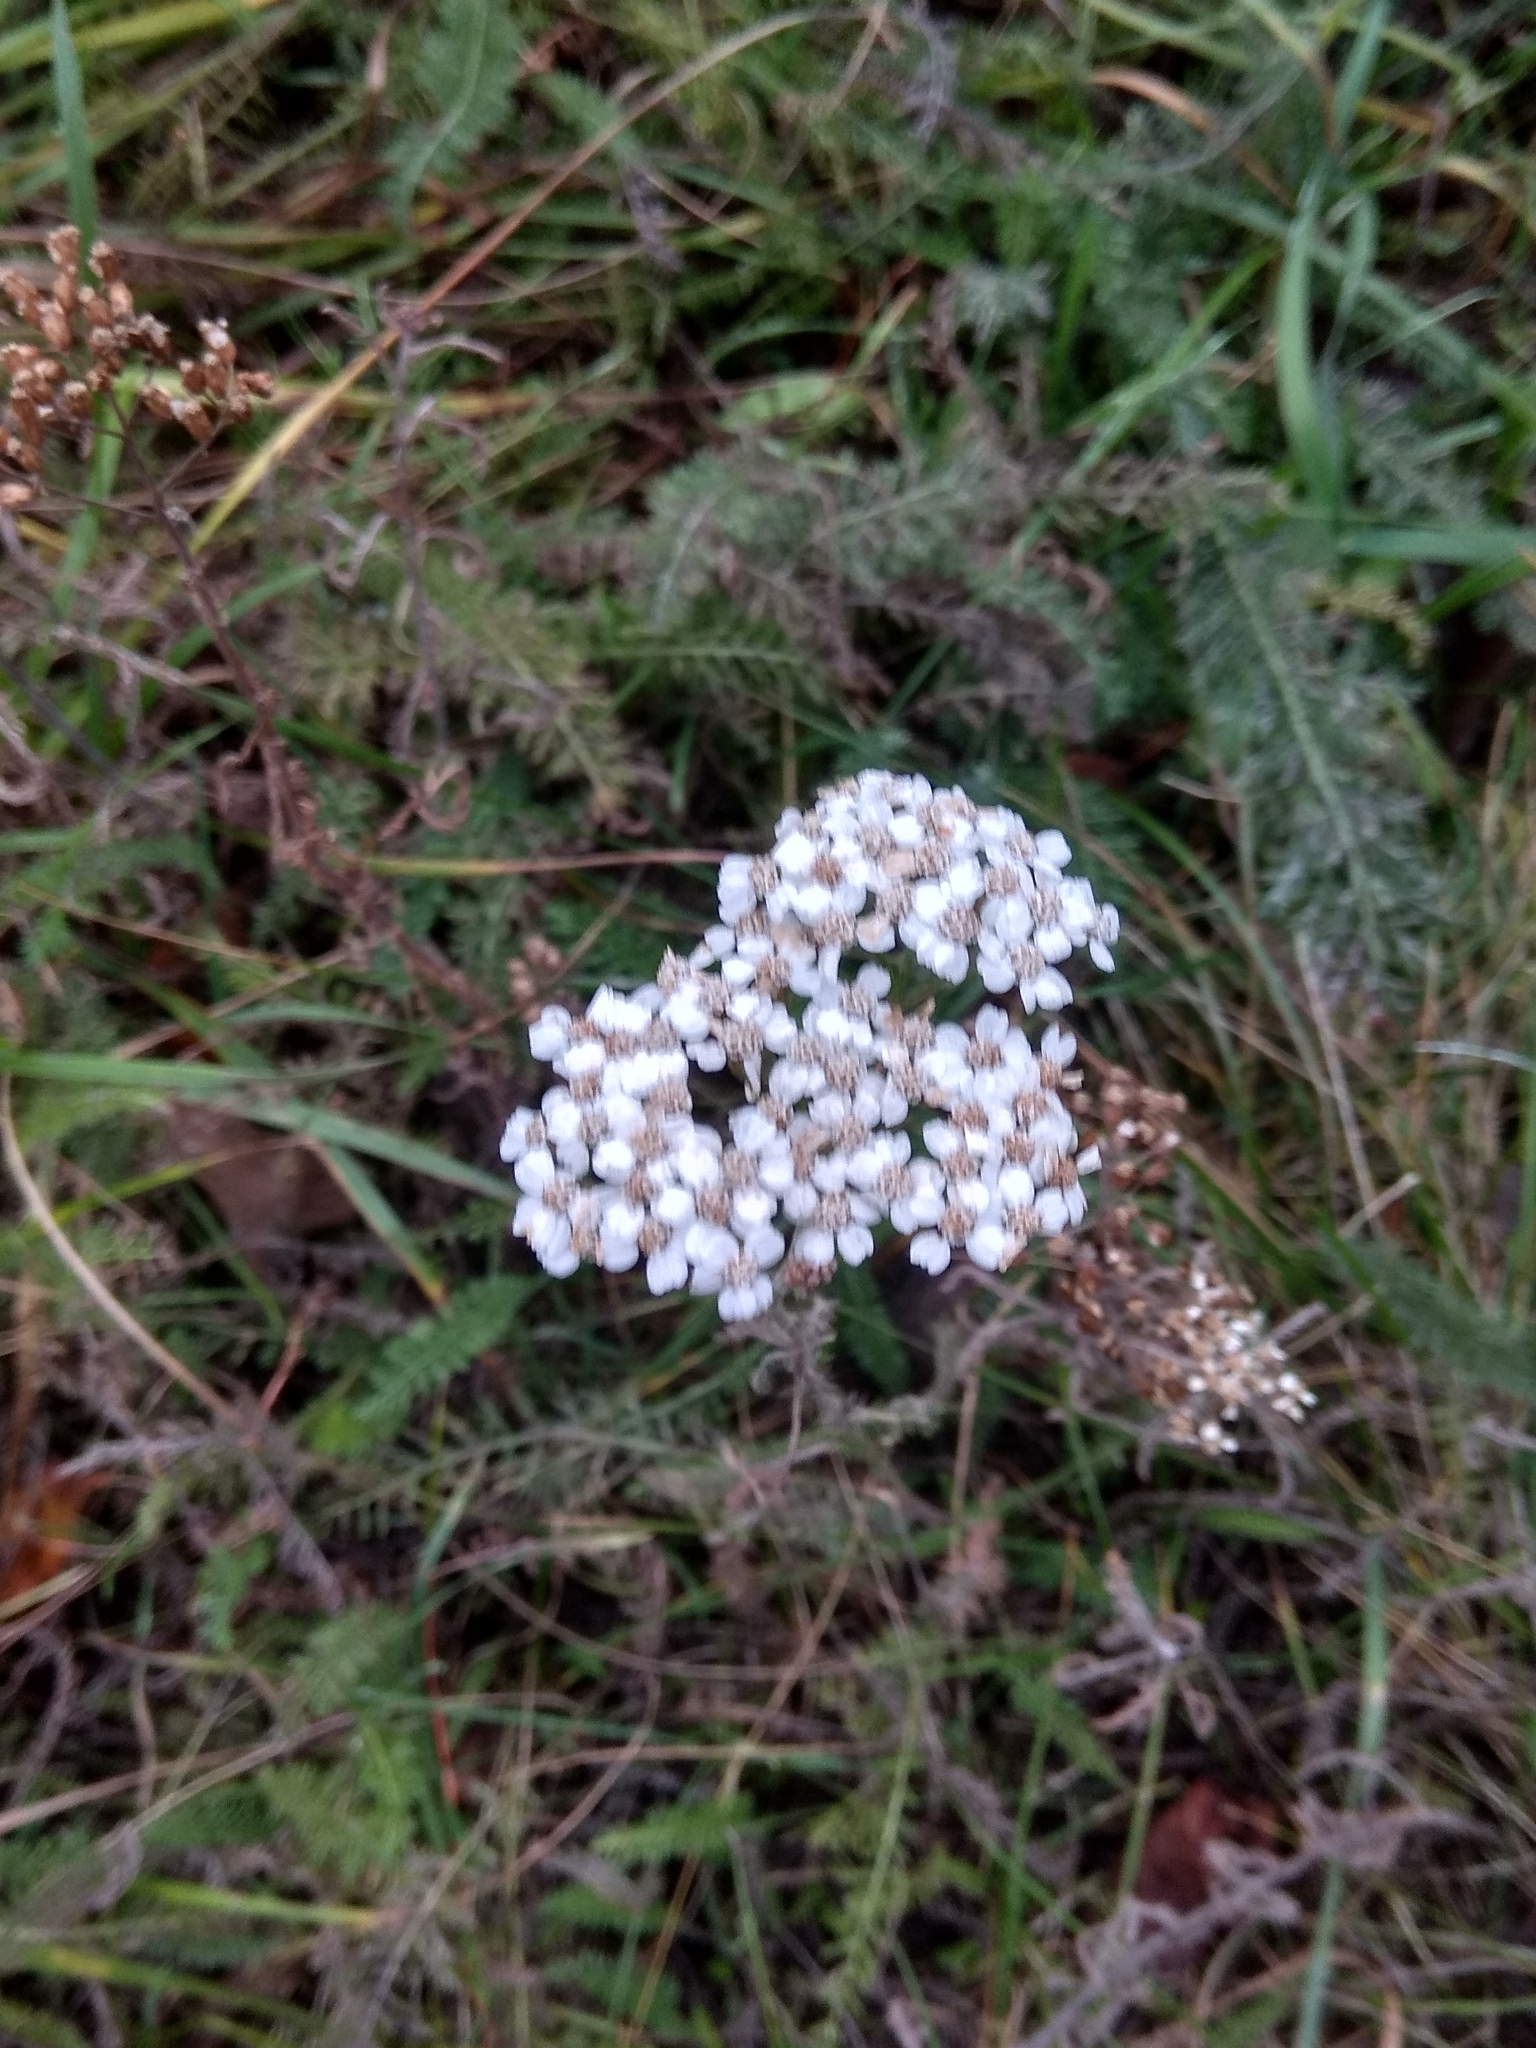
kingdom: Plantae
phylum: Tracheophyta
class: Magnoliopsida
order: Asterales
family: Asteraceae
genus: Achillea
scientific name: Achillea millefolium
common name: Yarrow
